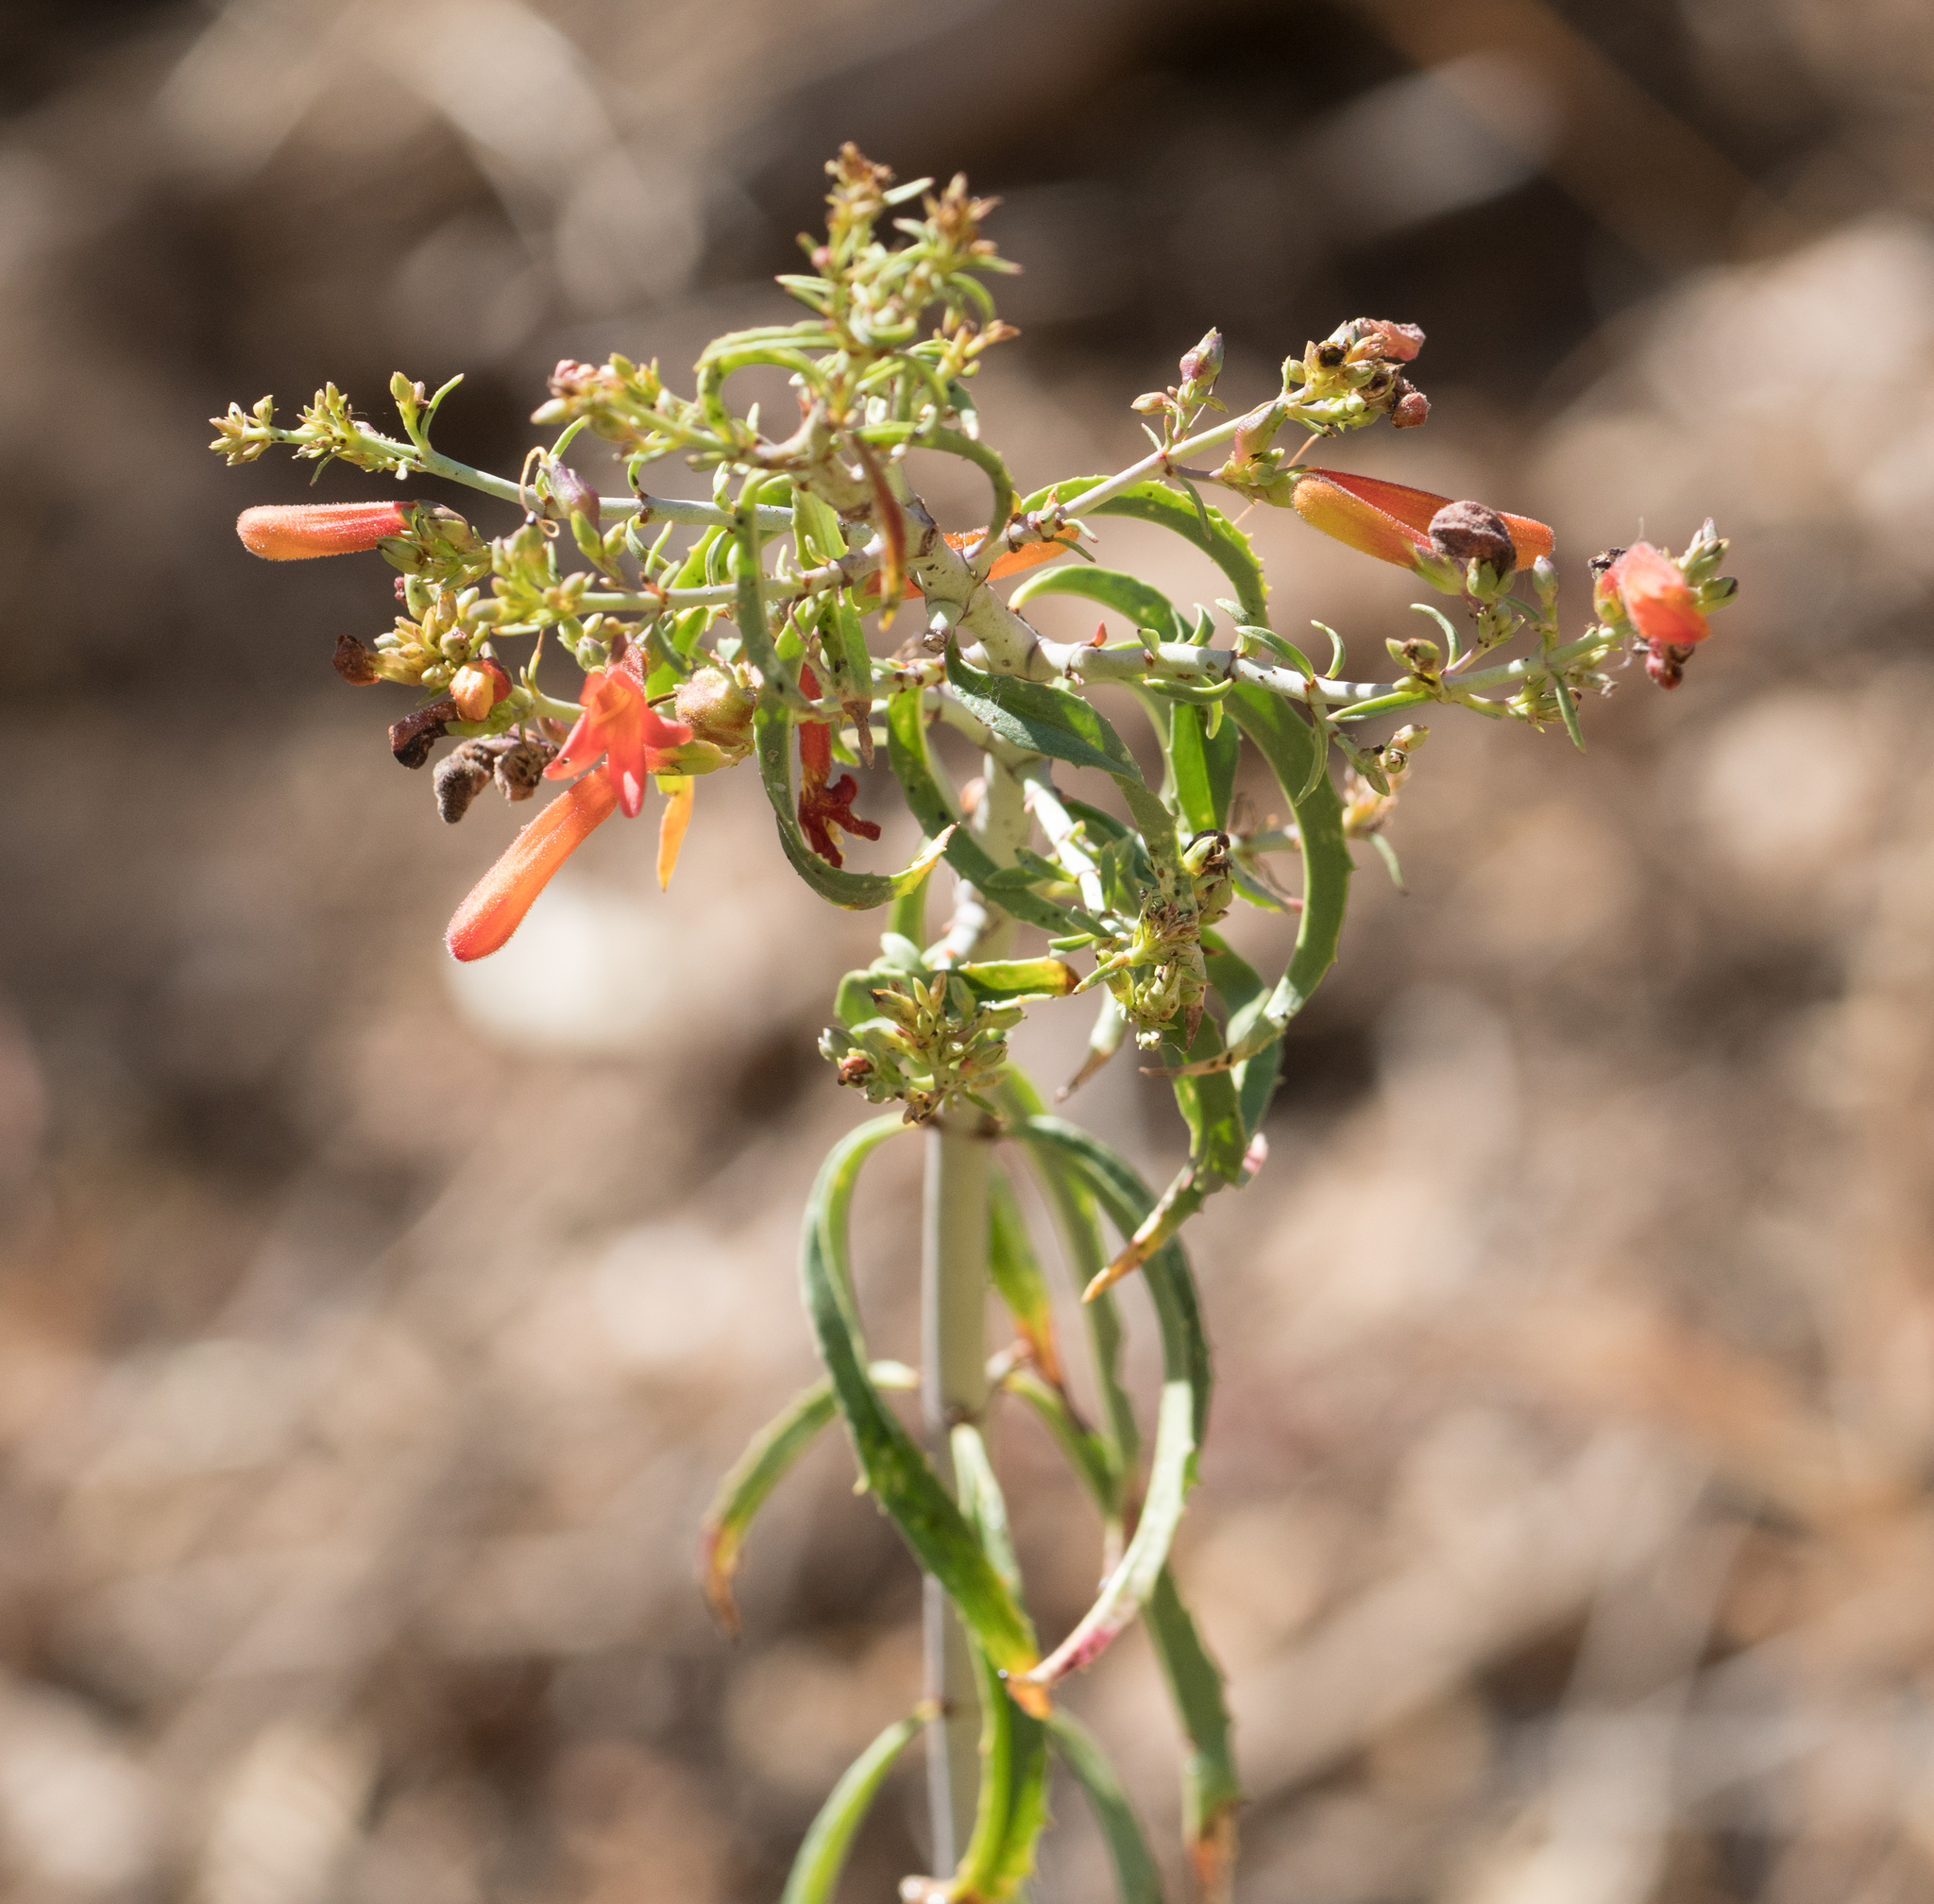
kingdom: Plantae
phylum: Tracheophyta
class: Magnoliopsida
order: Lamiales
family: Plantaginaceae
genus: Keckiella
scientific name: Keckiella ternata
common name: Scarlet keckiella
